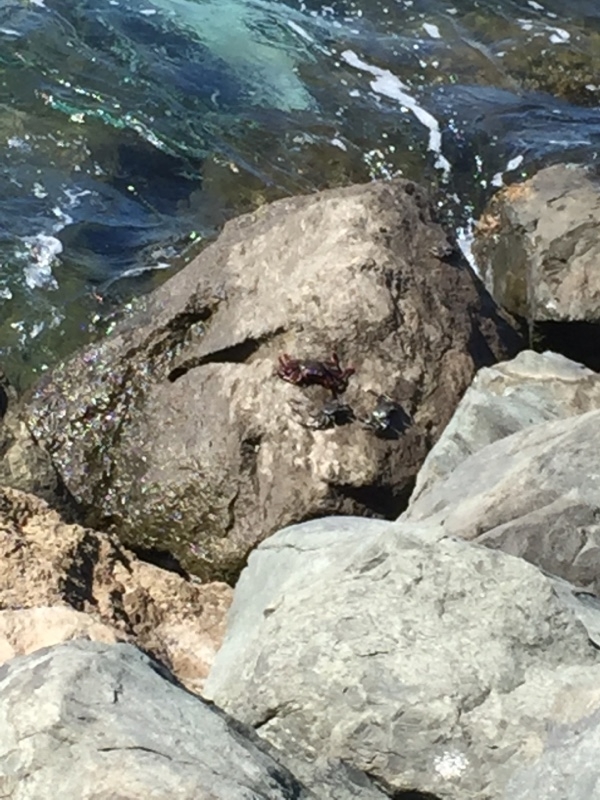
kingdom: Animalia
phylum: Arthropoda
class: Malacostraca
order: Decapoda
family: Grapsidae
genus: Grapsus
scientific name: Grapsus adscensionis
